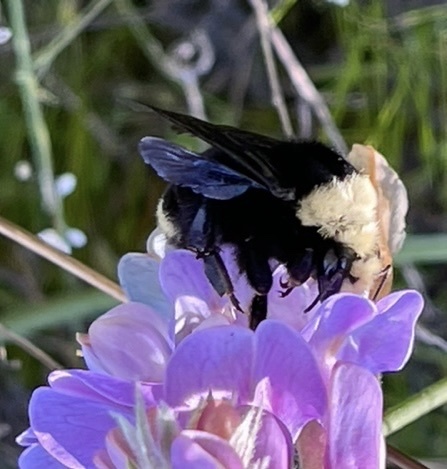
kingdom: Animalia
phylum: Arthropoda
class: Insecta
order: Hymenoptera
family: Apidae
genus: Bombus
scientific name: Bombus vosnesenskii
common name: Vosnesensky bumble bee
